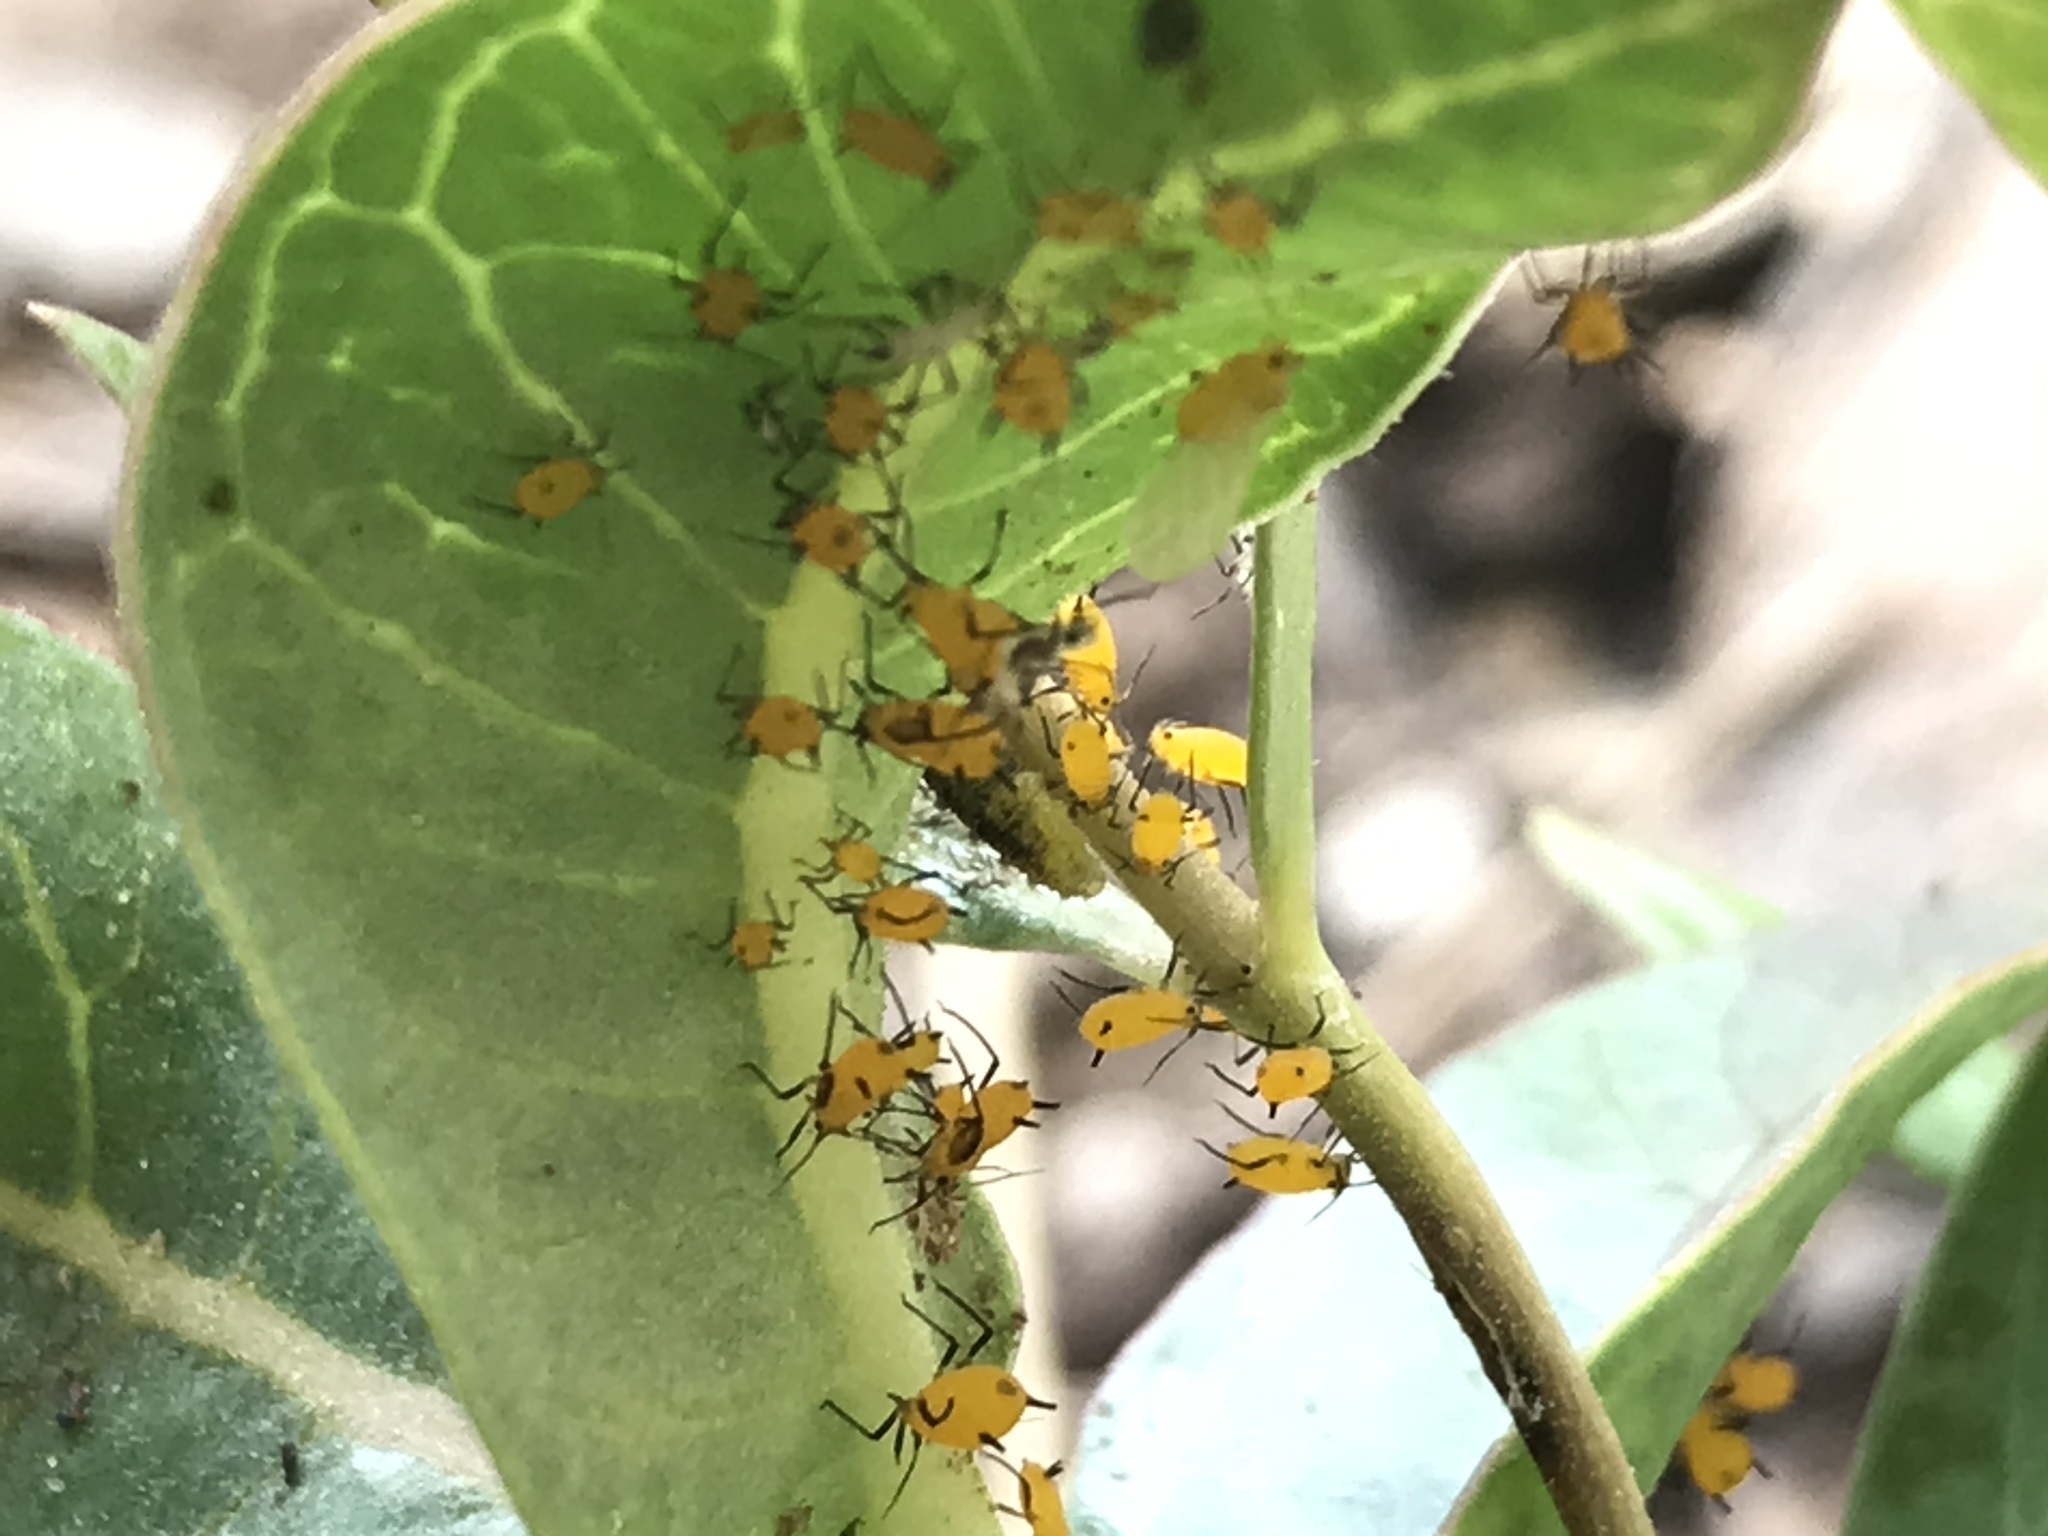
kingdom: Animalia
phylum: Arthropoda
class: Insecta
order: Hemiptera
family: Aphididae
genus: Aphis
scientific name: Aphis nerii
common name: Oleander aphid
